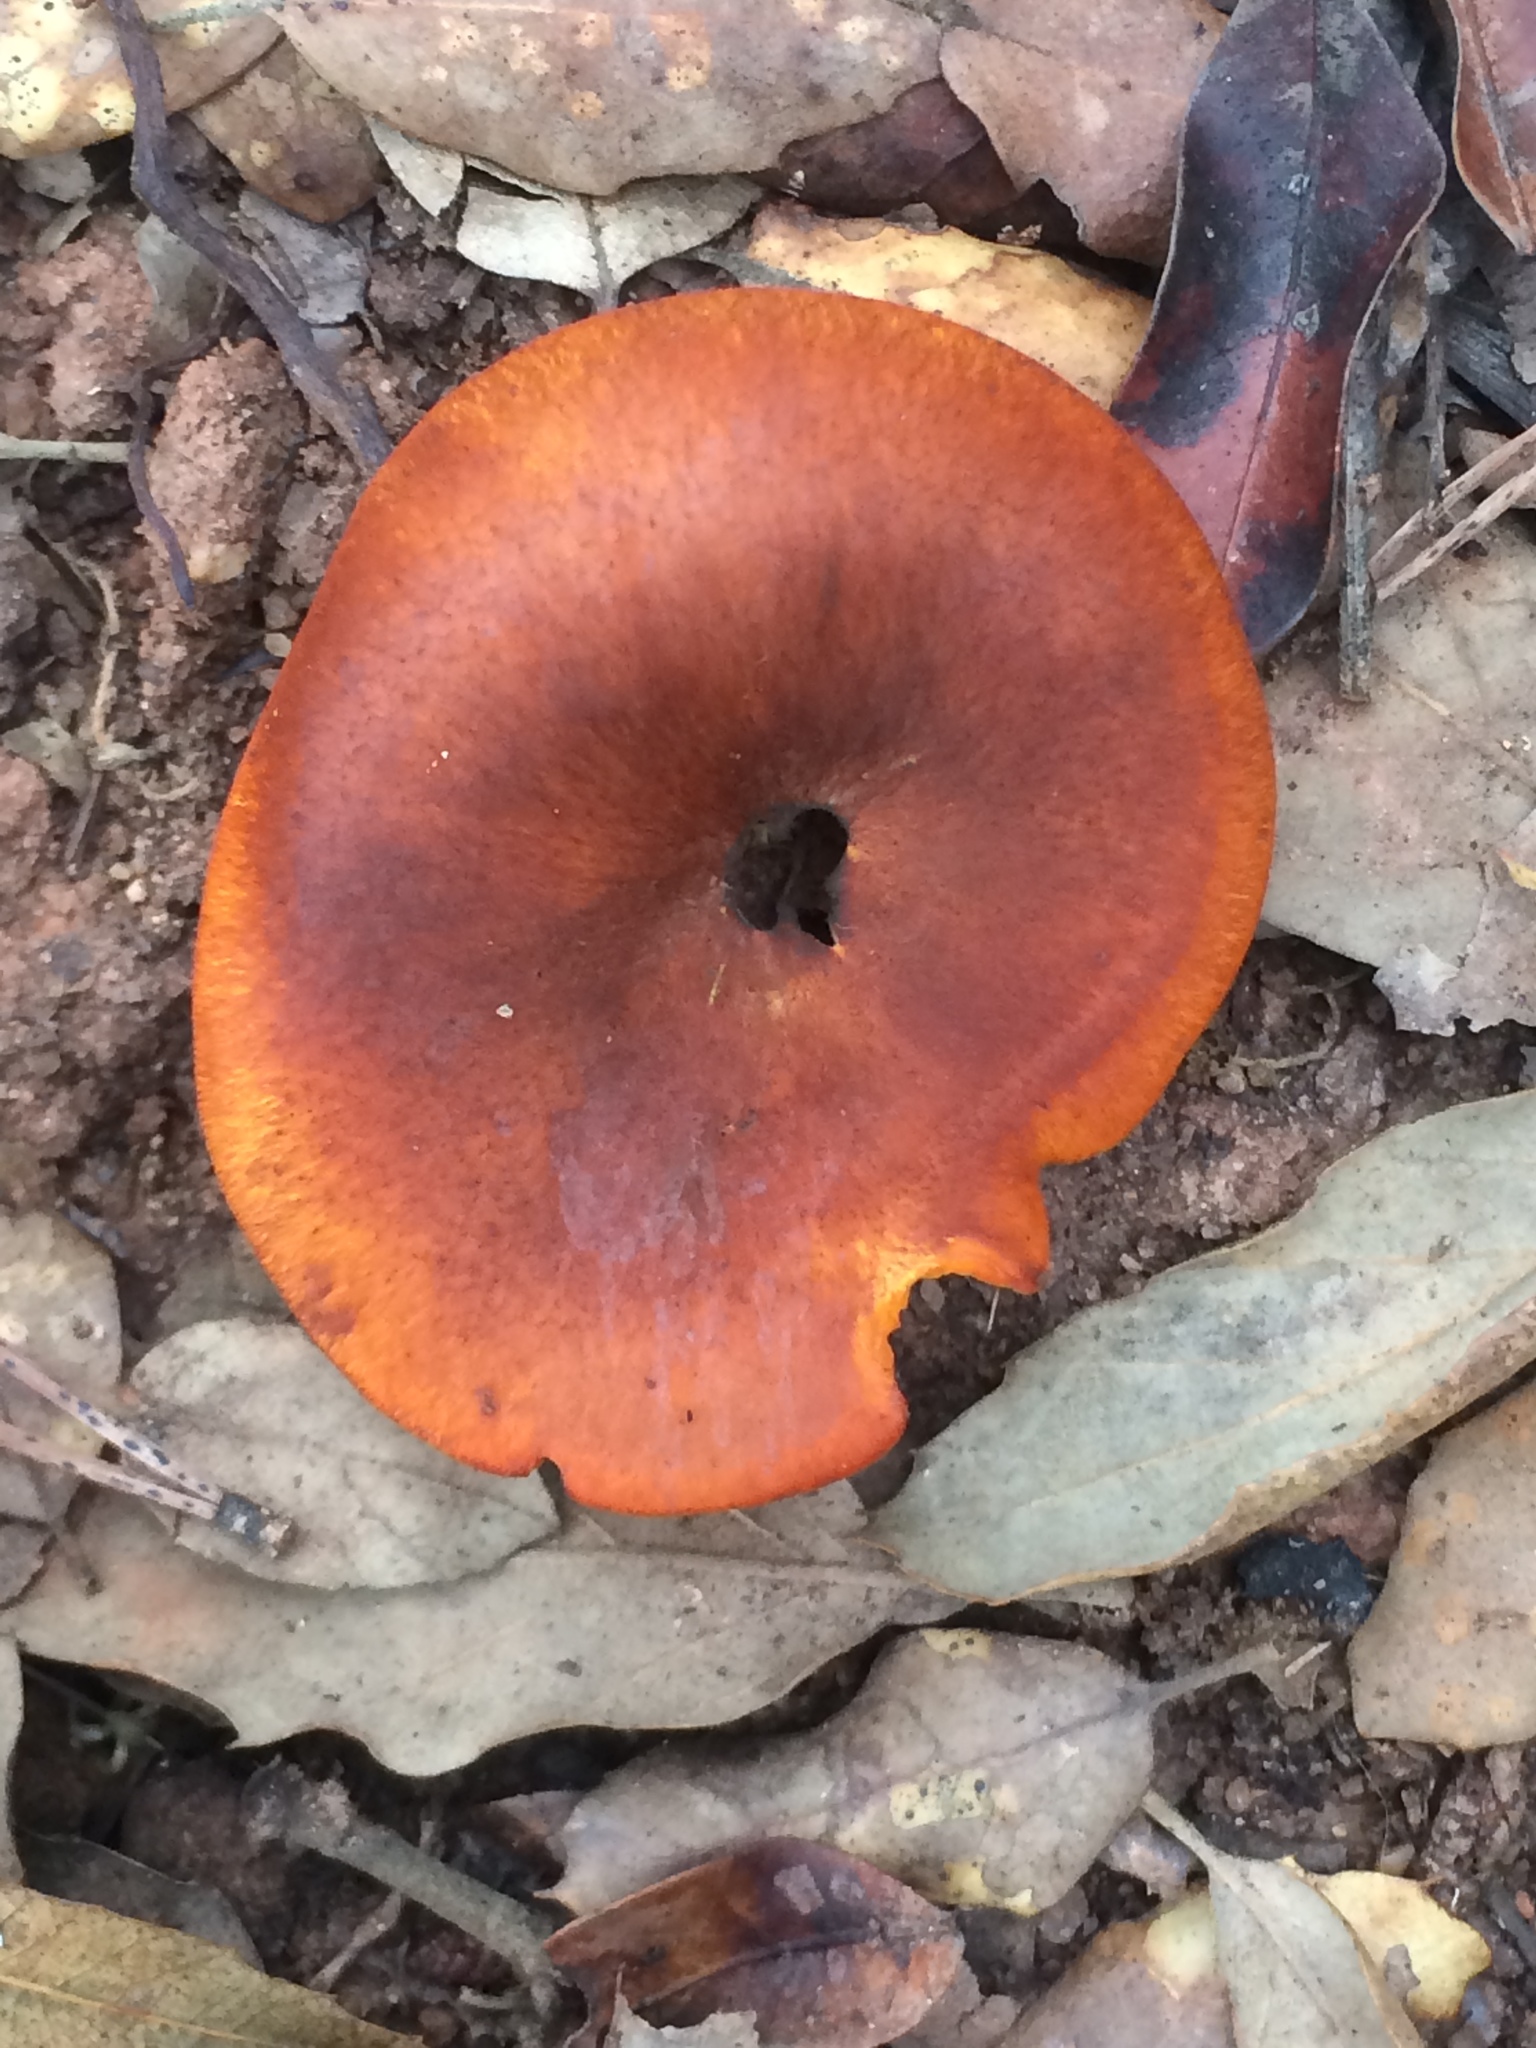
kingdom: Fungi
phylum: Basidiomycota
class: Agaricomycetes
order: Agaricales
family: Omphalotaceae
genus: Omphalotus
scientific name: Omphalotus olearius
